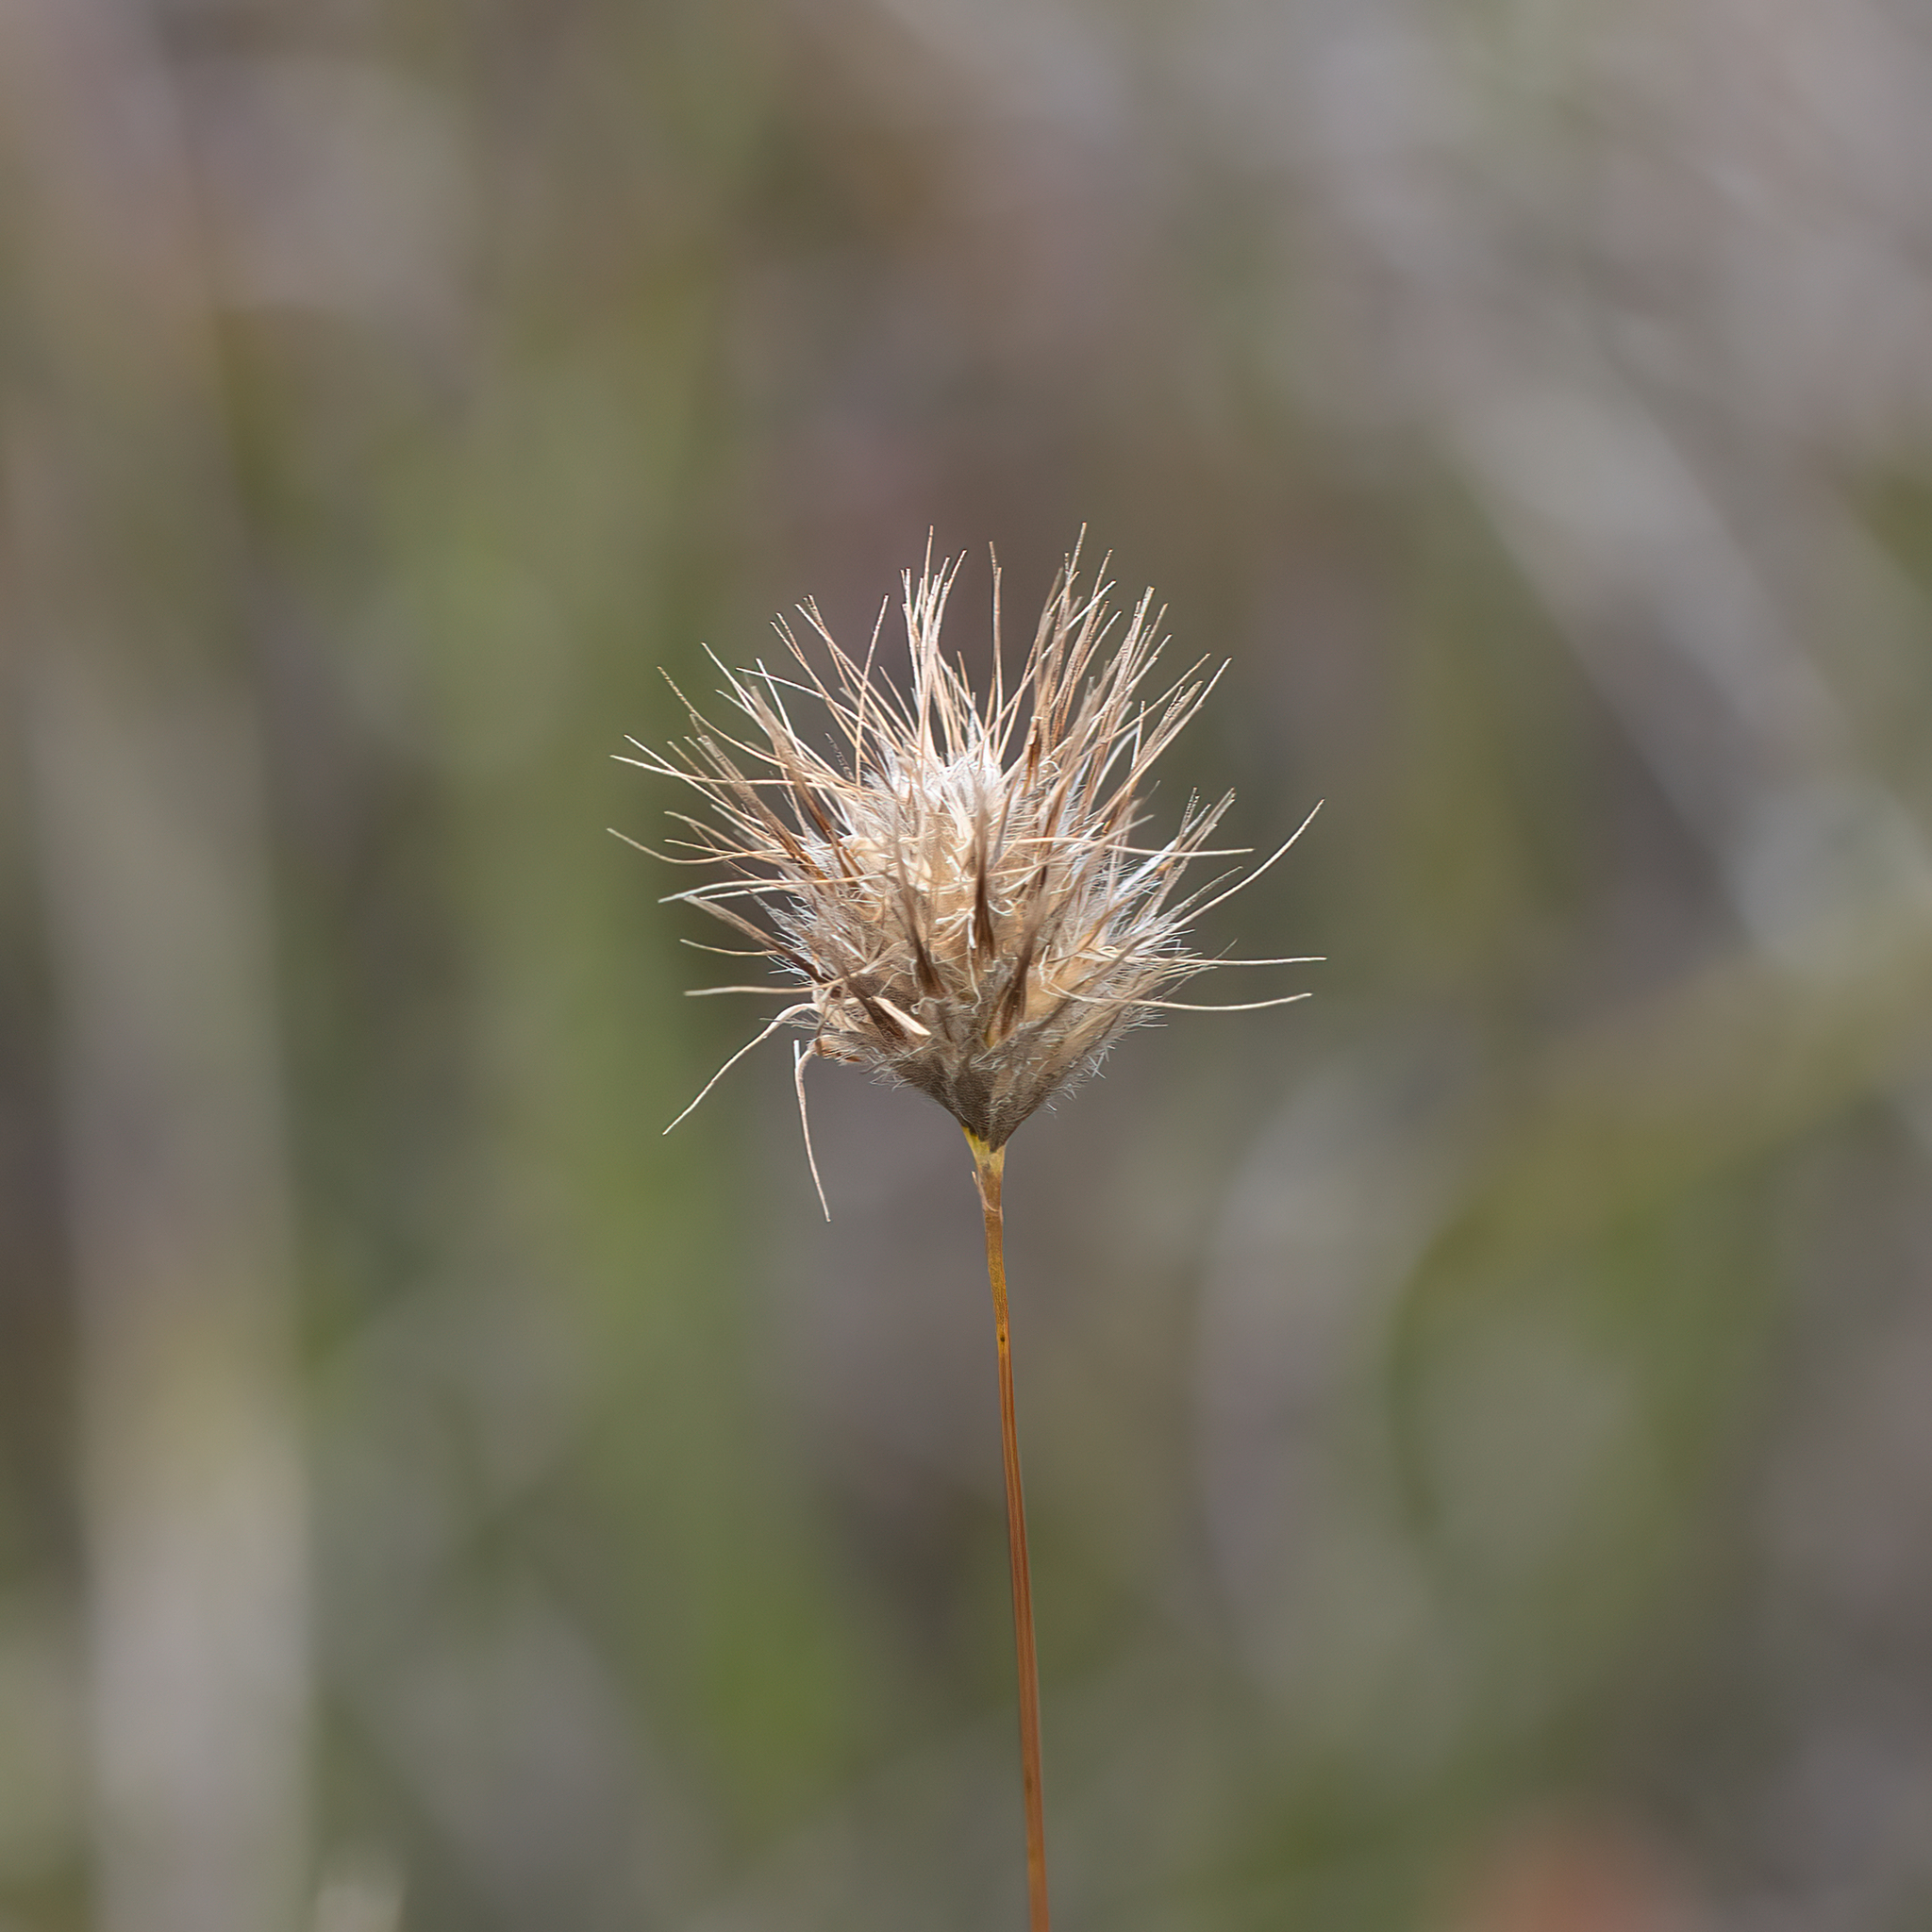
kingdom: Plantae
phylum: Tracheophyta
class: Liliopsida
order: Poales
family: Poaceae
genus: Amphipogon
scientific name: Amphipogon turbinatus
